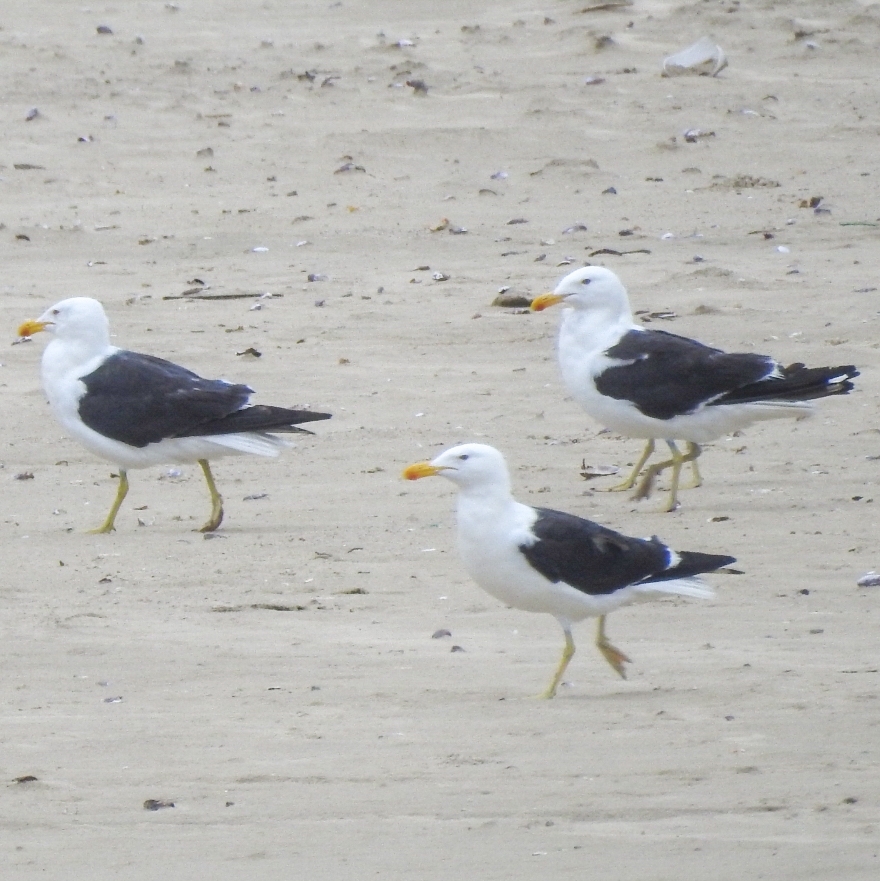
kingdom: Animalia
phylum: Chordata
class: Aves
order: Charadriiformes
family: Laridae
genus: Larus
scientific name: Larus dominicanus
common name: Kelp gull
